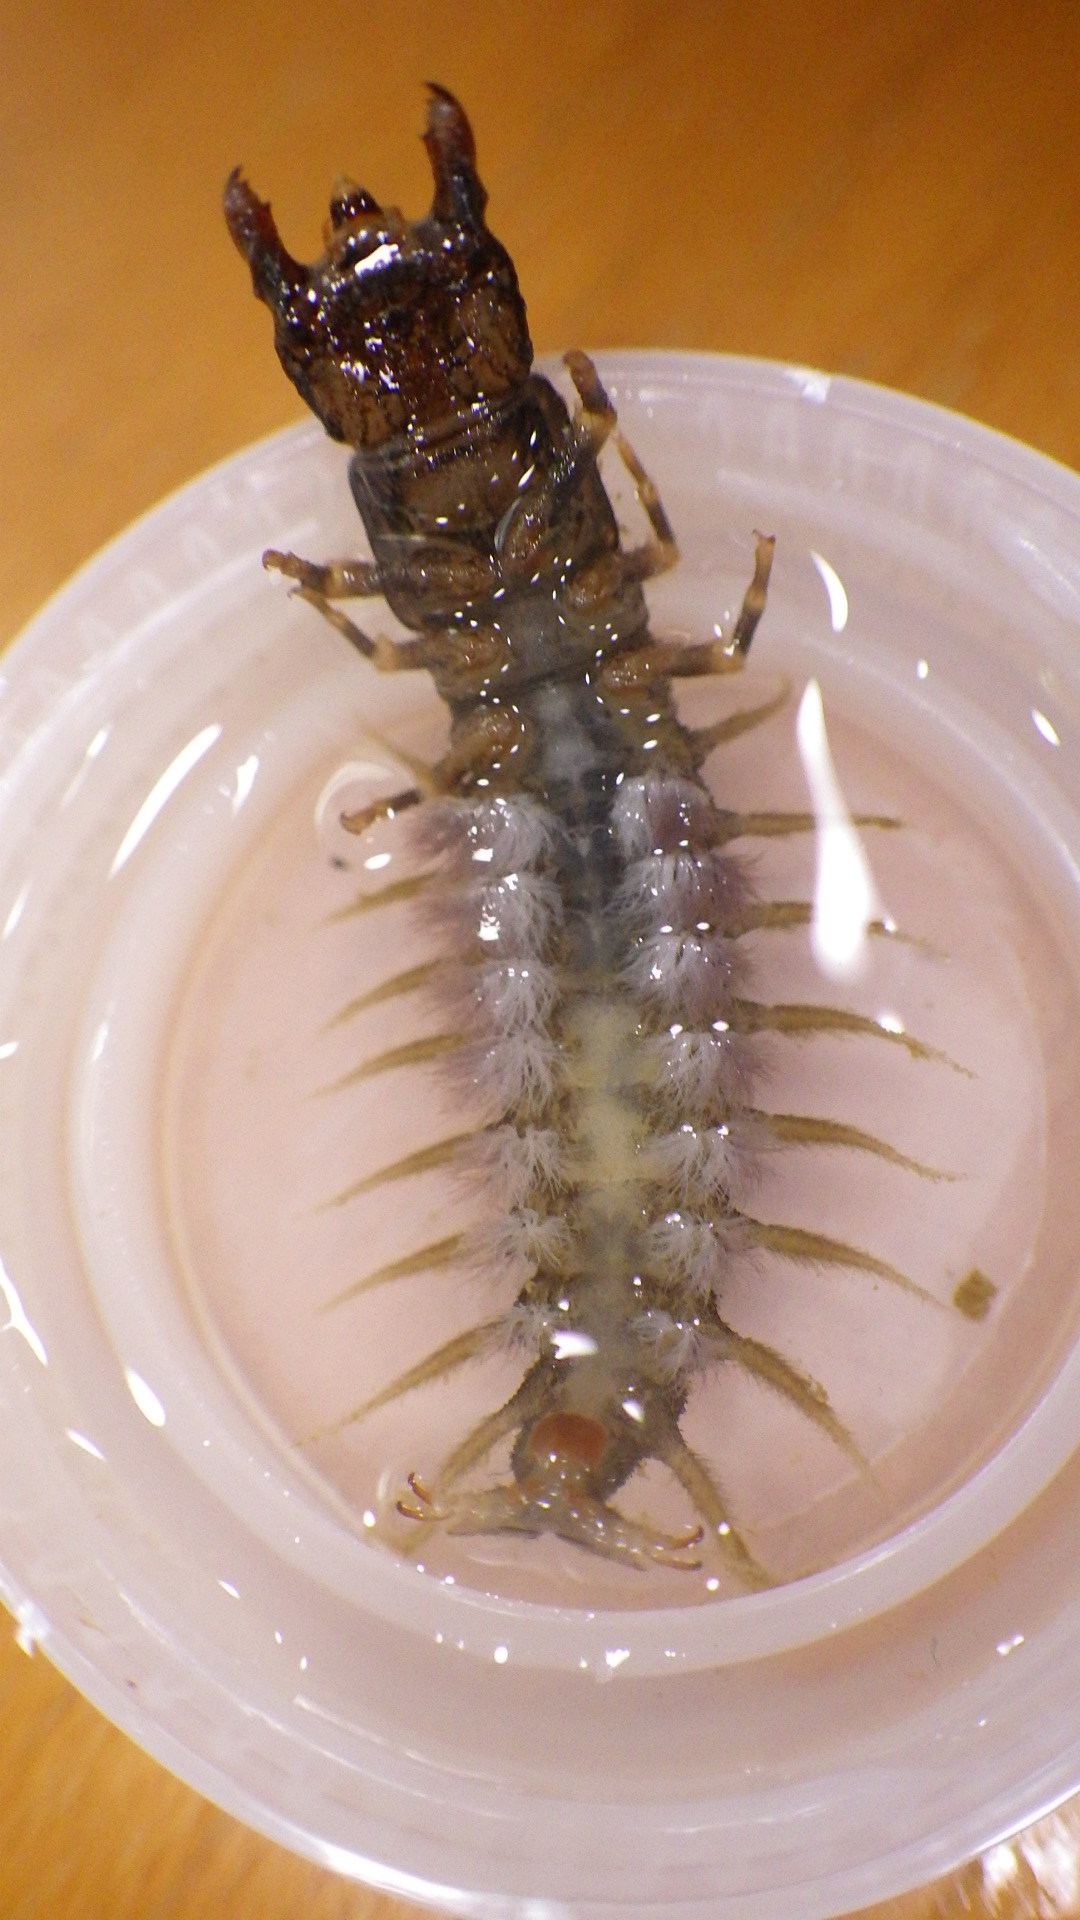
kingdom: Animalia
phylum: Arthropoda
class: Insecta
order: Megaloptera
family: Corydalidae
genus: Corydalus
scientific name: Corydalus cornutus
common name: Dobsonfly
